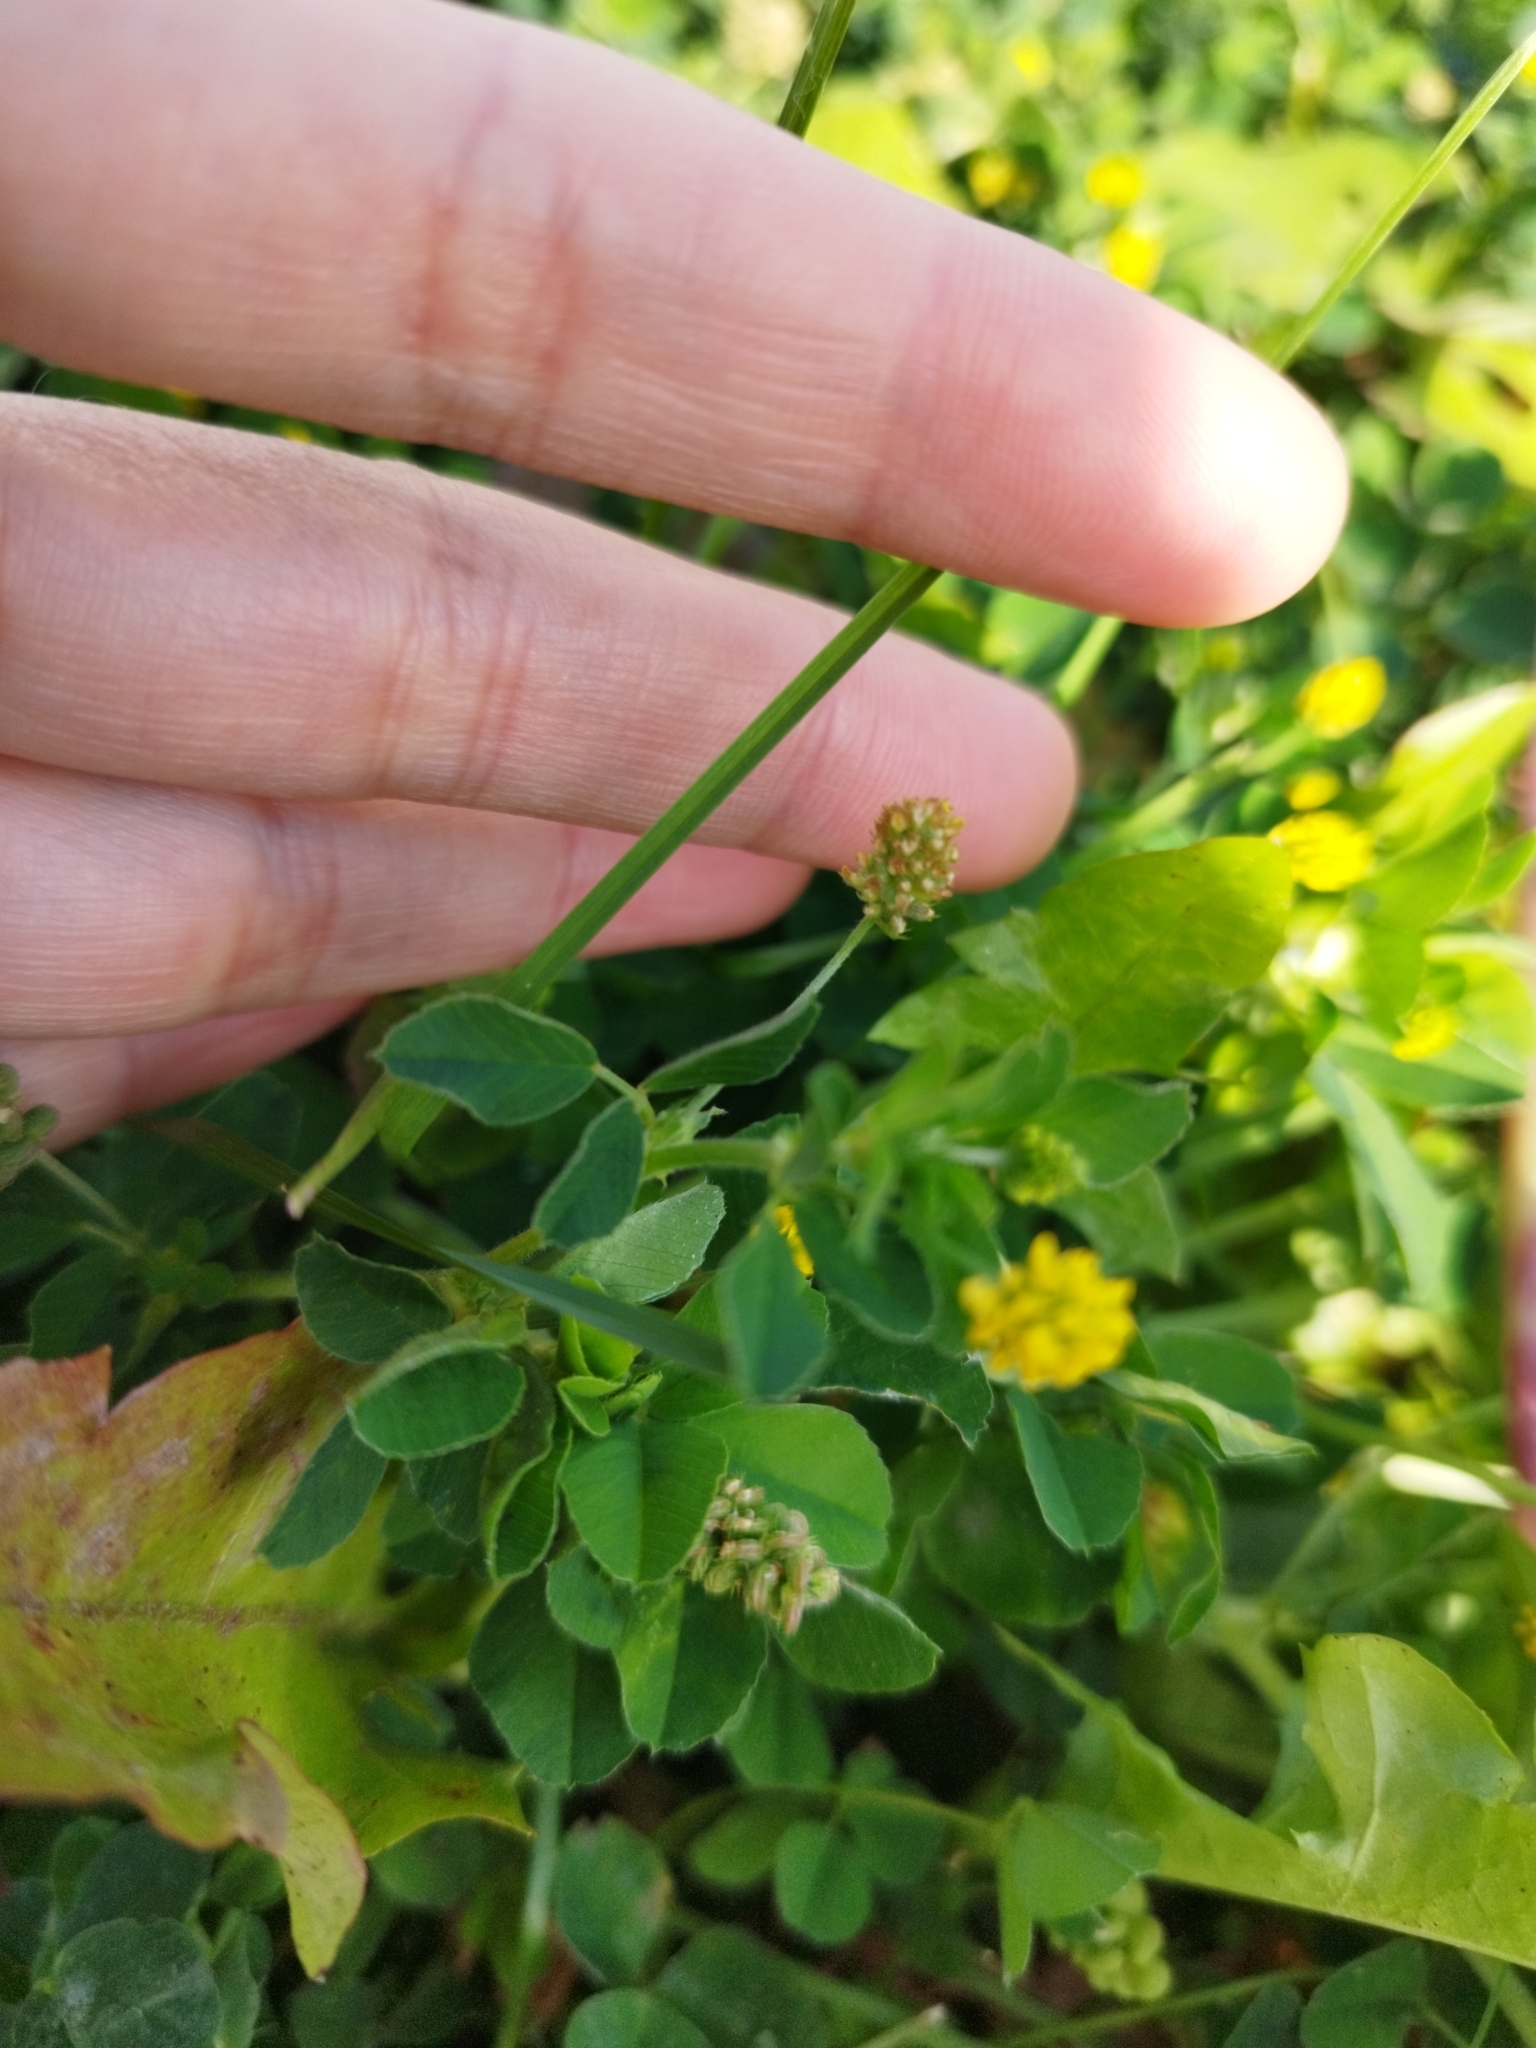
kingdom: Plantae
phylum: Tracheophyta
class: Magnoliopsida
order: Fabales
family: Fabaceae
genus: Medicago
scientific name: Medicago lupulina
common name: Black medick
